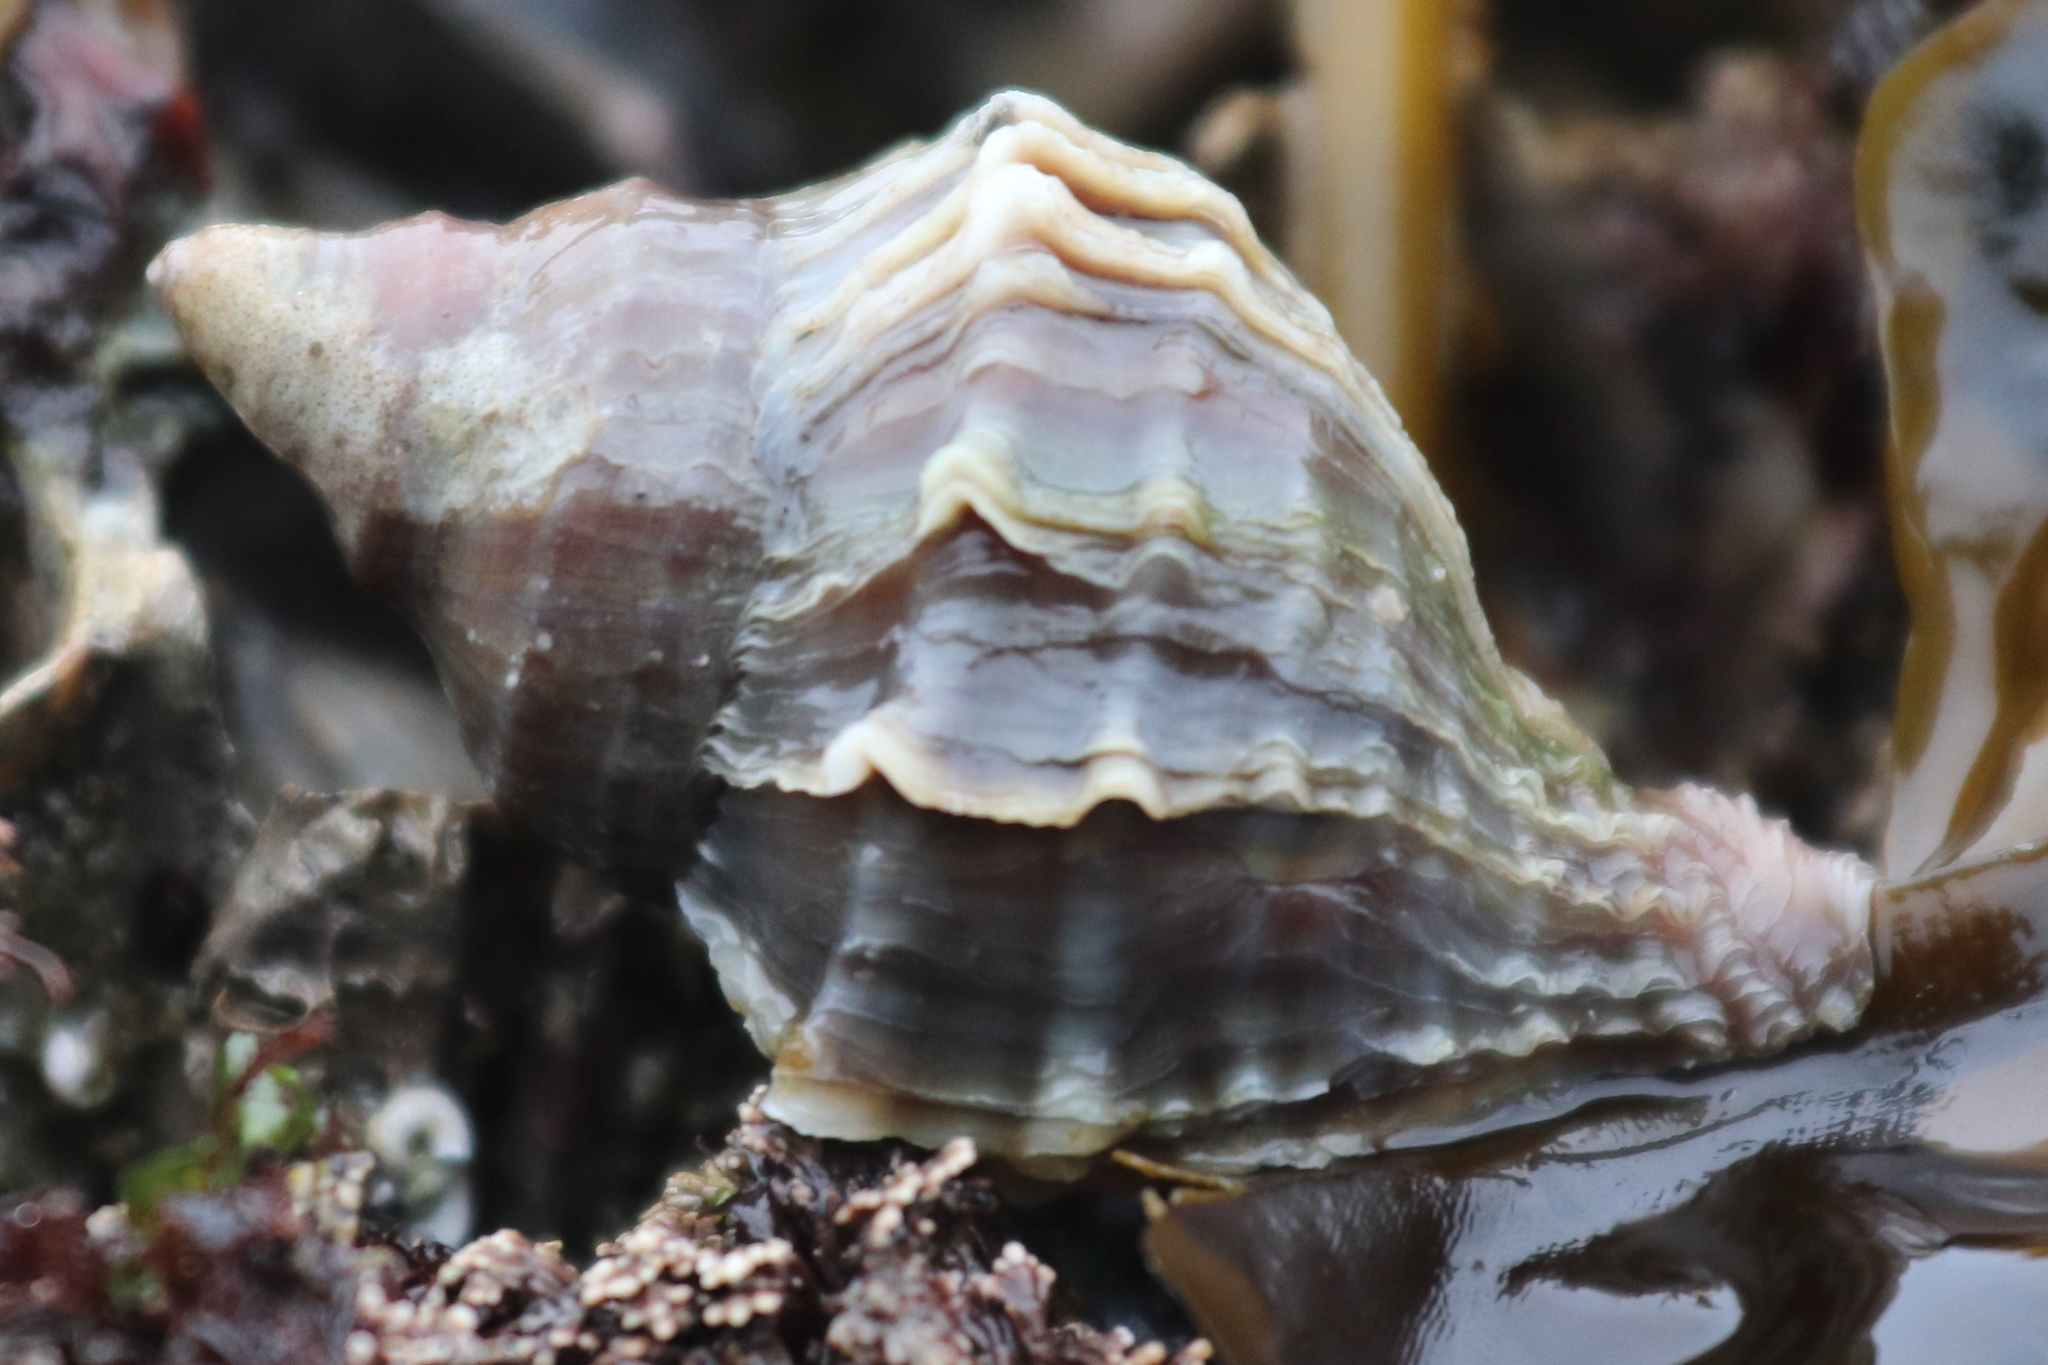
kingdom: Animalia
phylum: Mollusca
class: Gastropoda
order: Neogastropoda
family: Muricidae
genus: Nucella
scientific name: Nucella lamellosa
